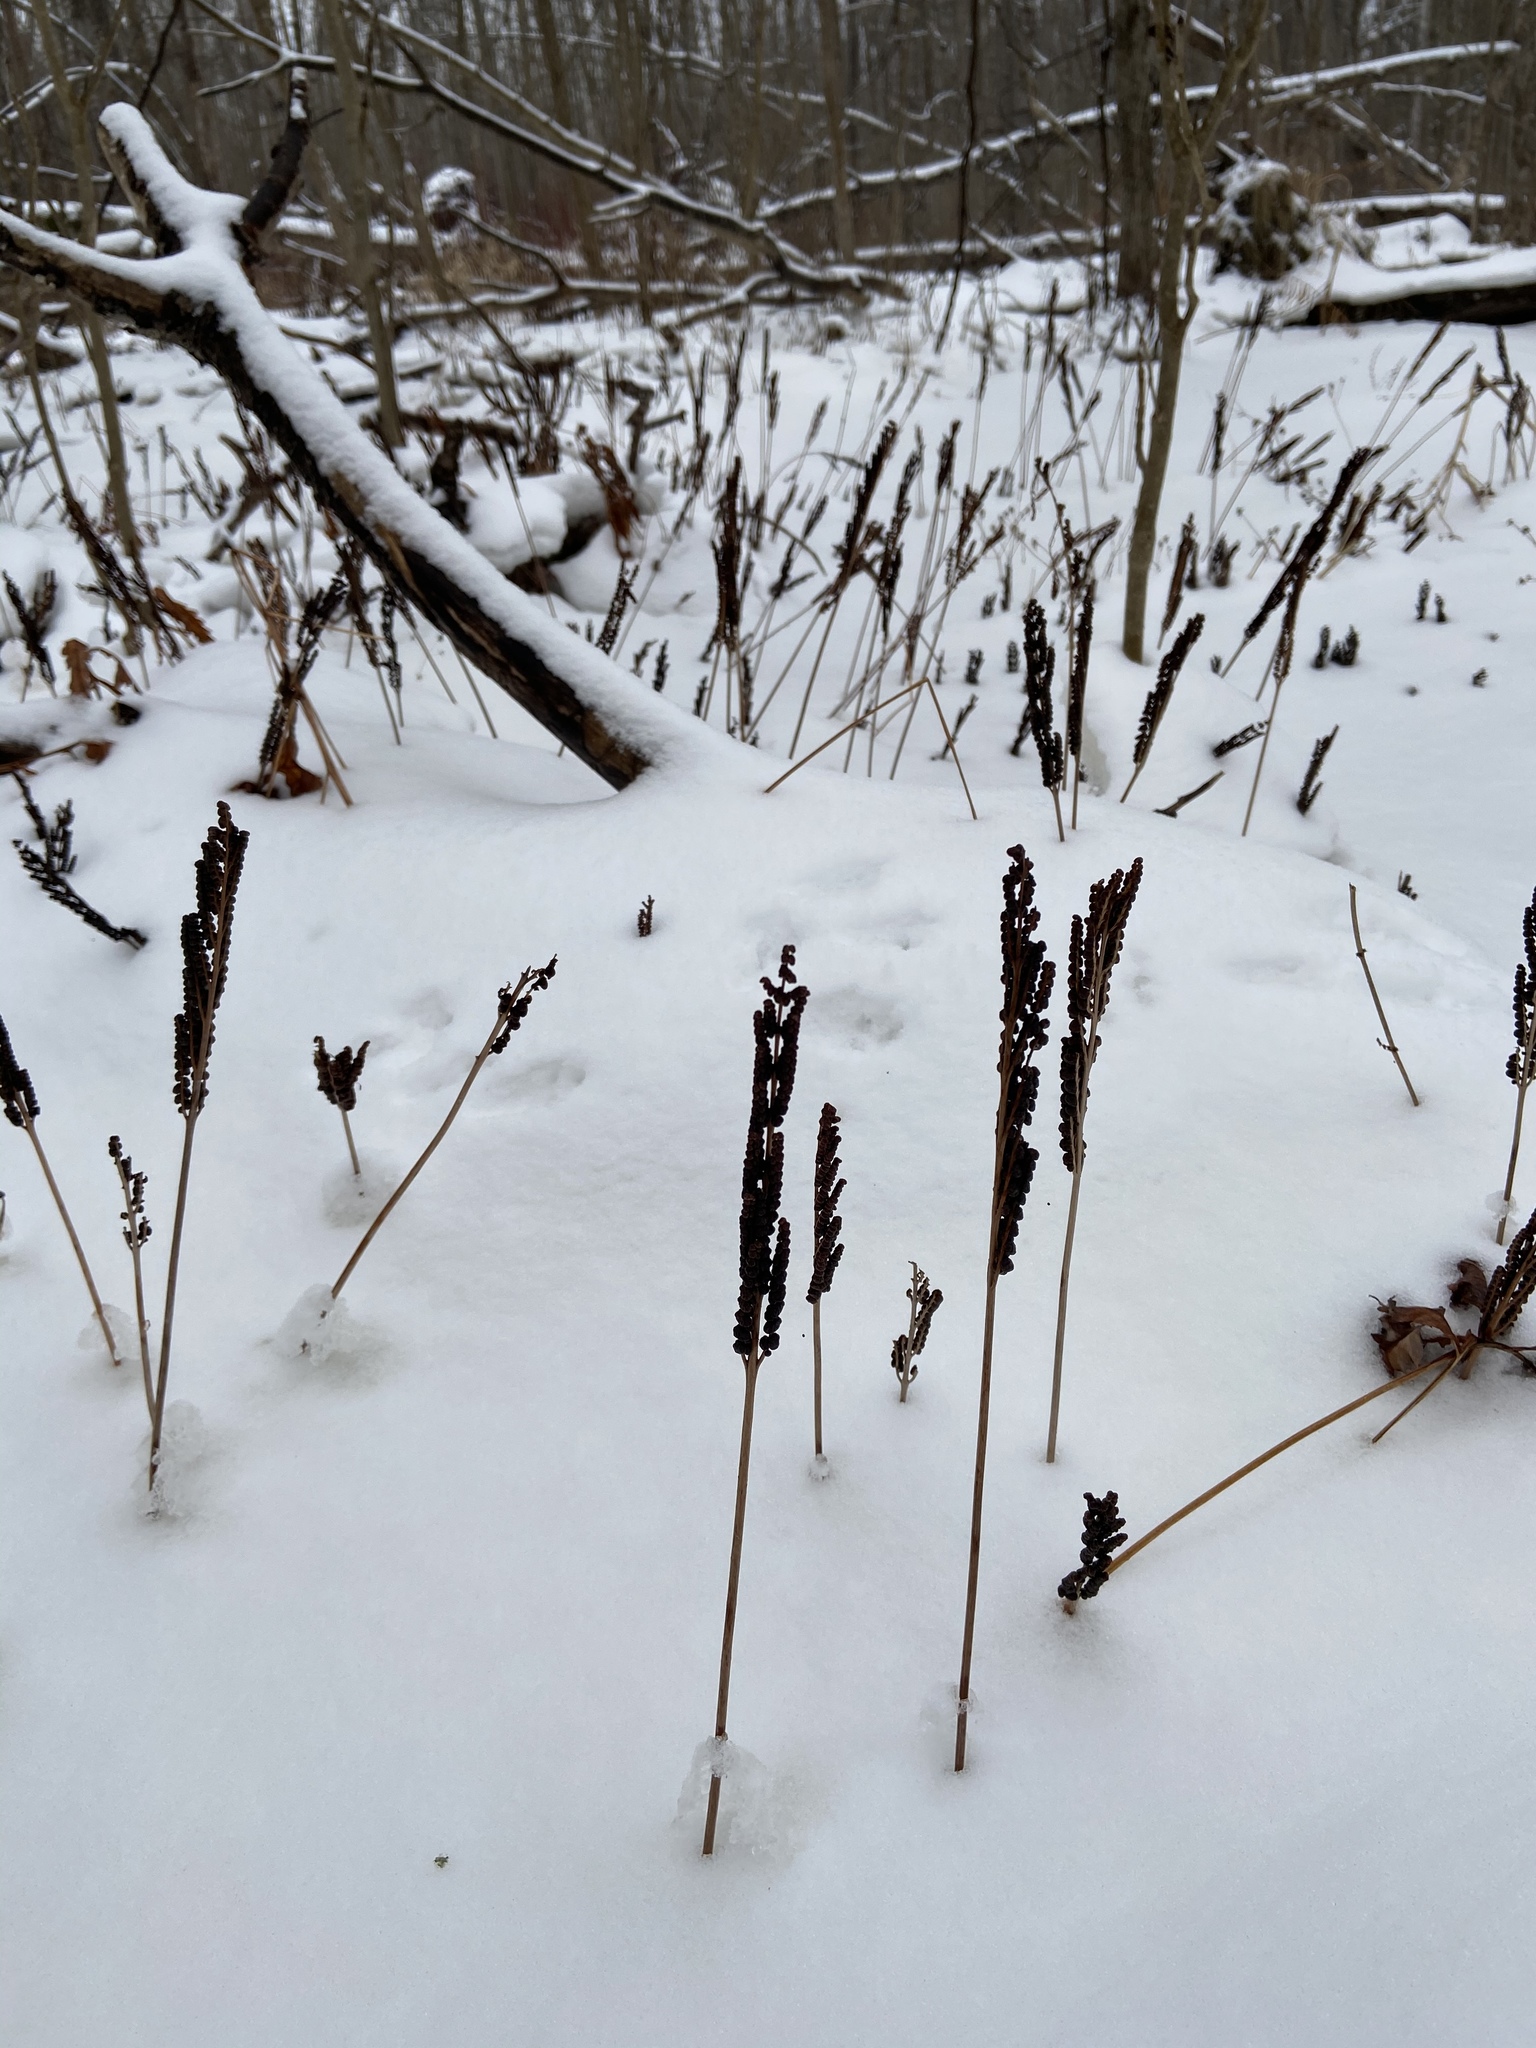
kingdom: Plantae
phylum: Tracheophyta
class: Polypodiopsida
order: Polypodiales
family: Onocleaceae
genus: Onoclea
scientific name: Onoclea sensibilis
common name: Sensitive fern
